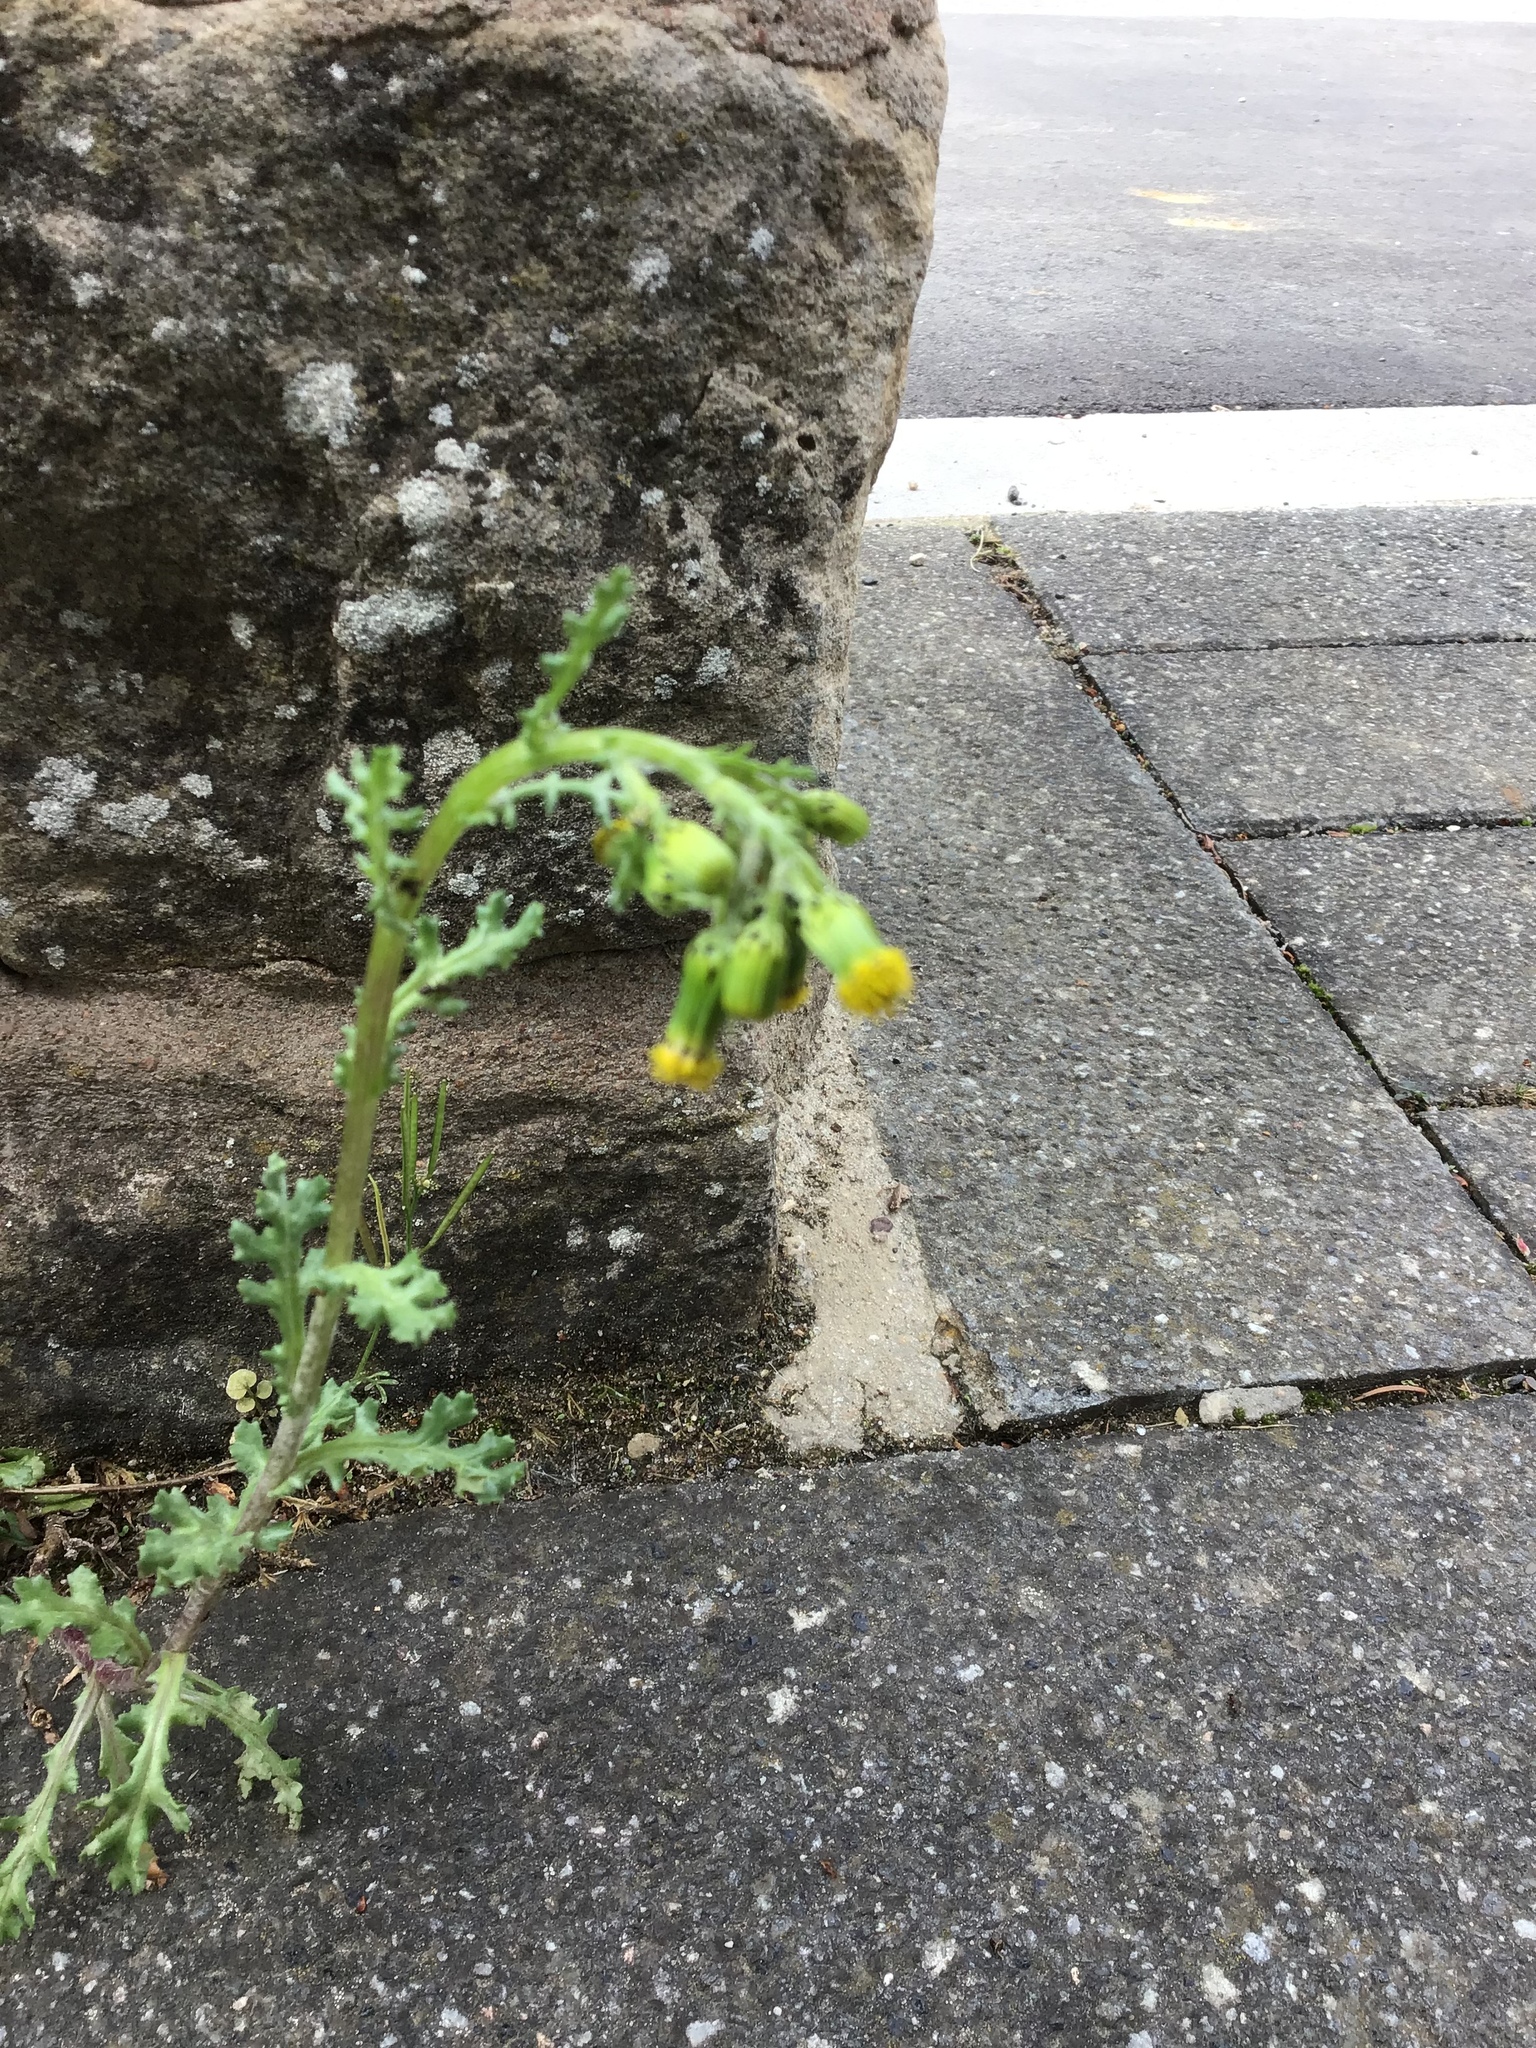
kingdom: Plantae
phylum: Tracheophyta
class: Magnoliopsida
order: Asterales
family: Asteraceae
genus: Senecio
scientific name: Senecio vulgaris
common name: Old-man-in-the-spring
